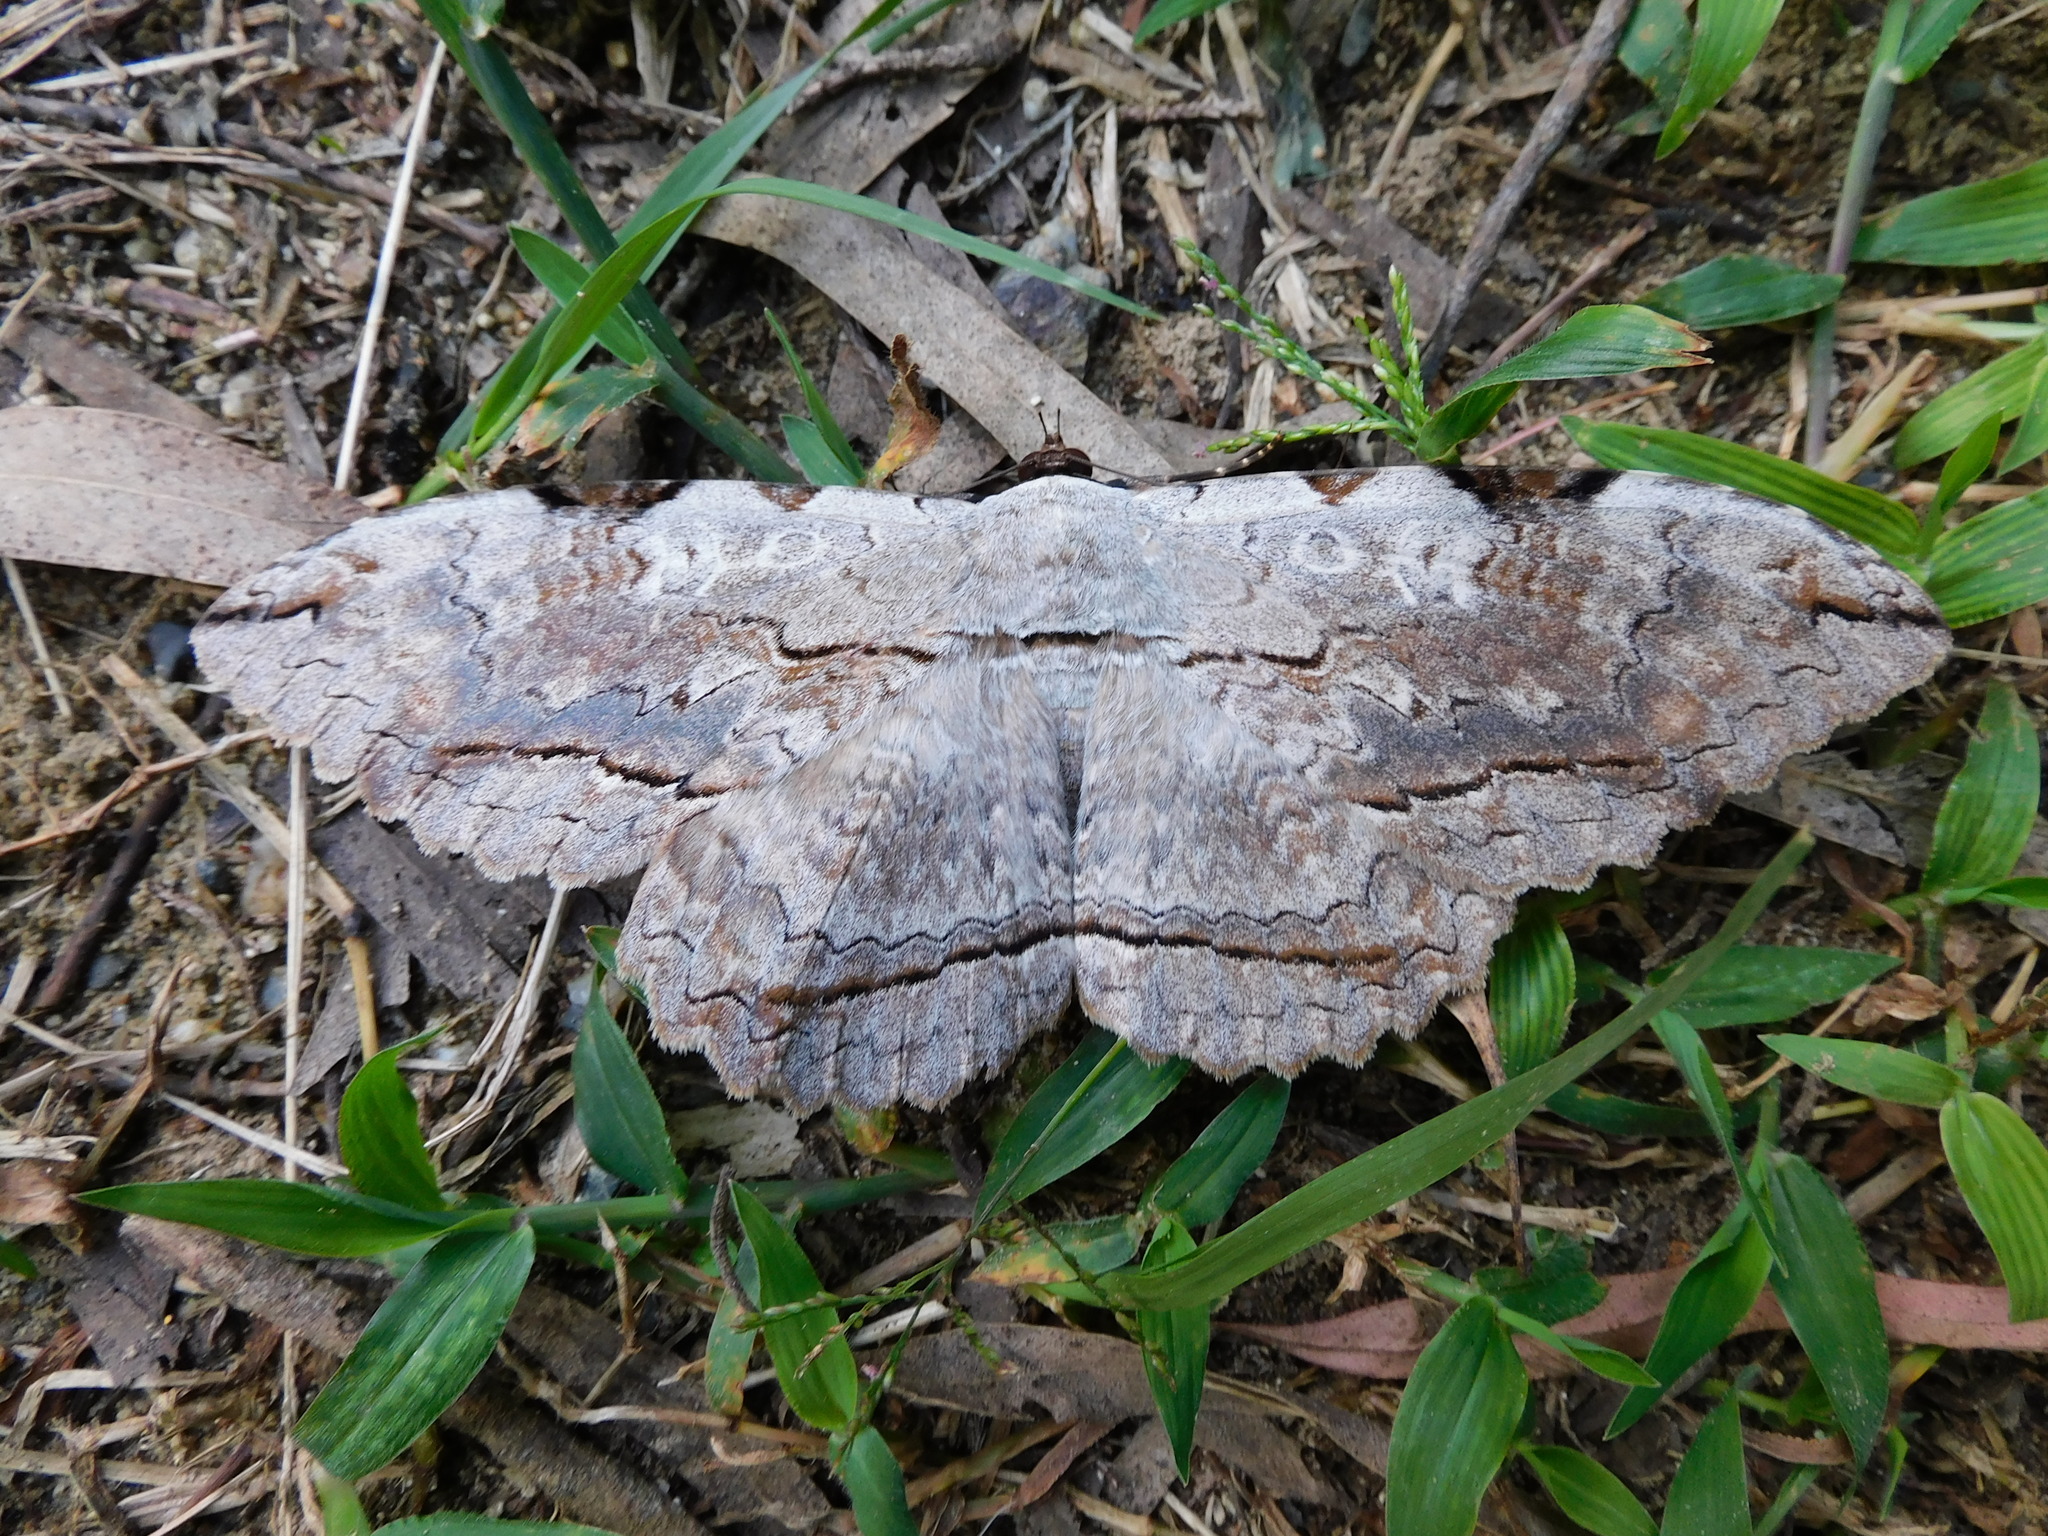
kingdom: Animalia
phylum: Arthropoda
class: Insecta
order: Lepidoptera
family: Erebidae
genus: Thysania
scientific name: Thysania zenobia
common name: Owl moth
